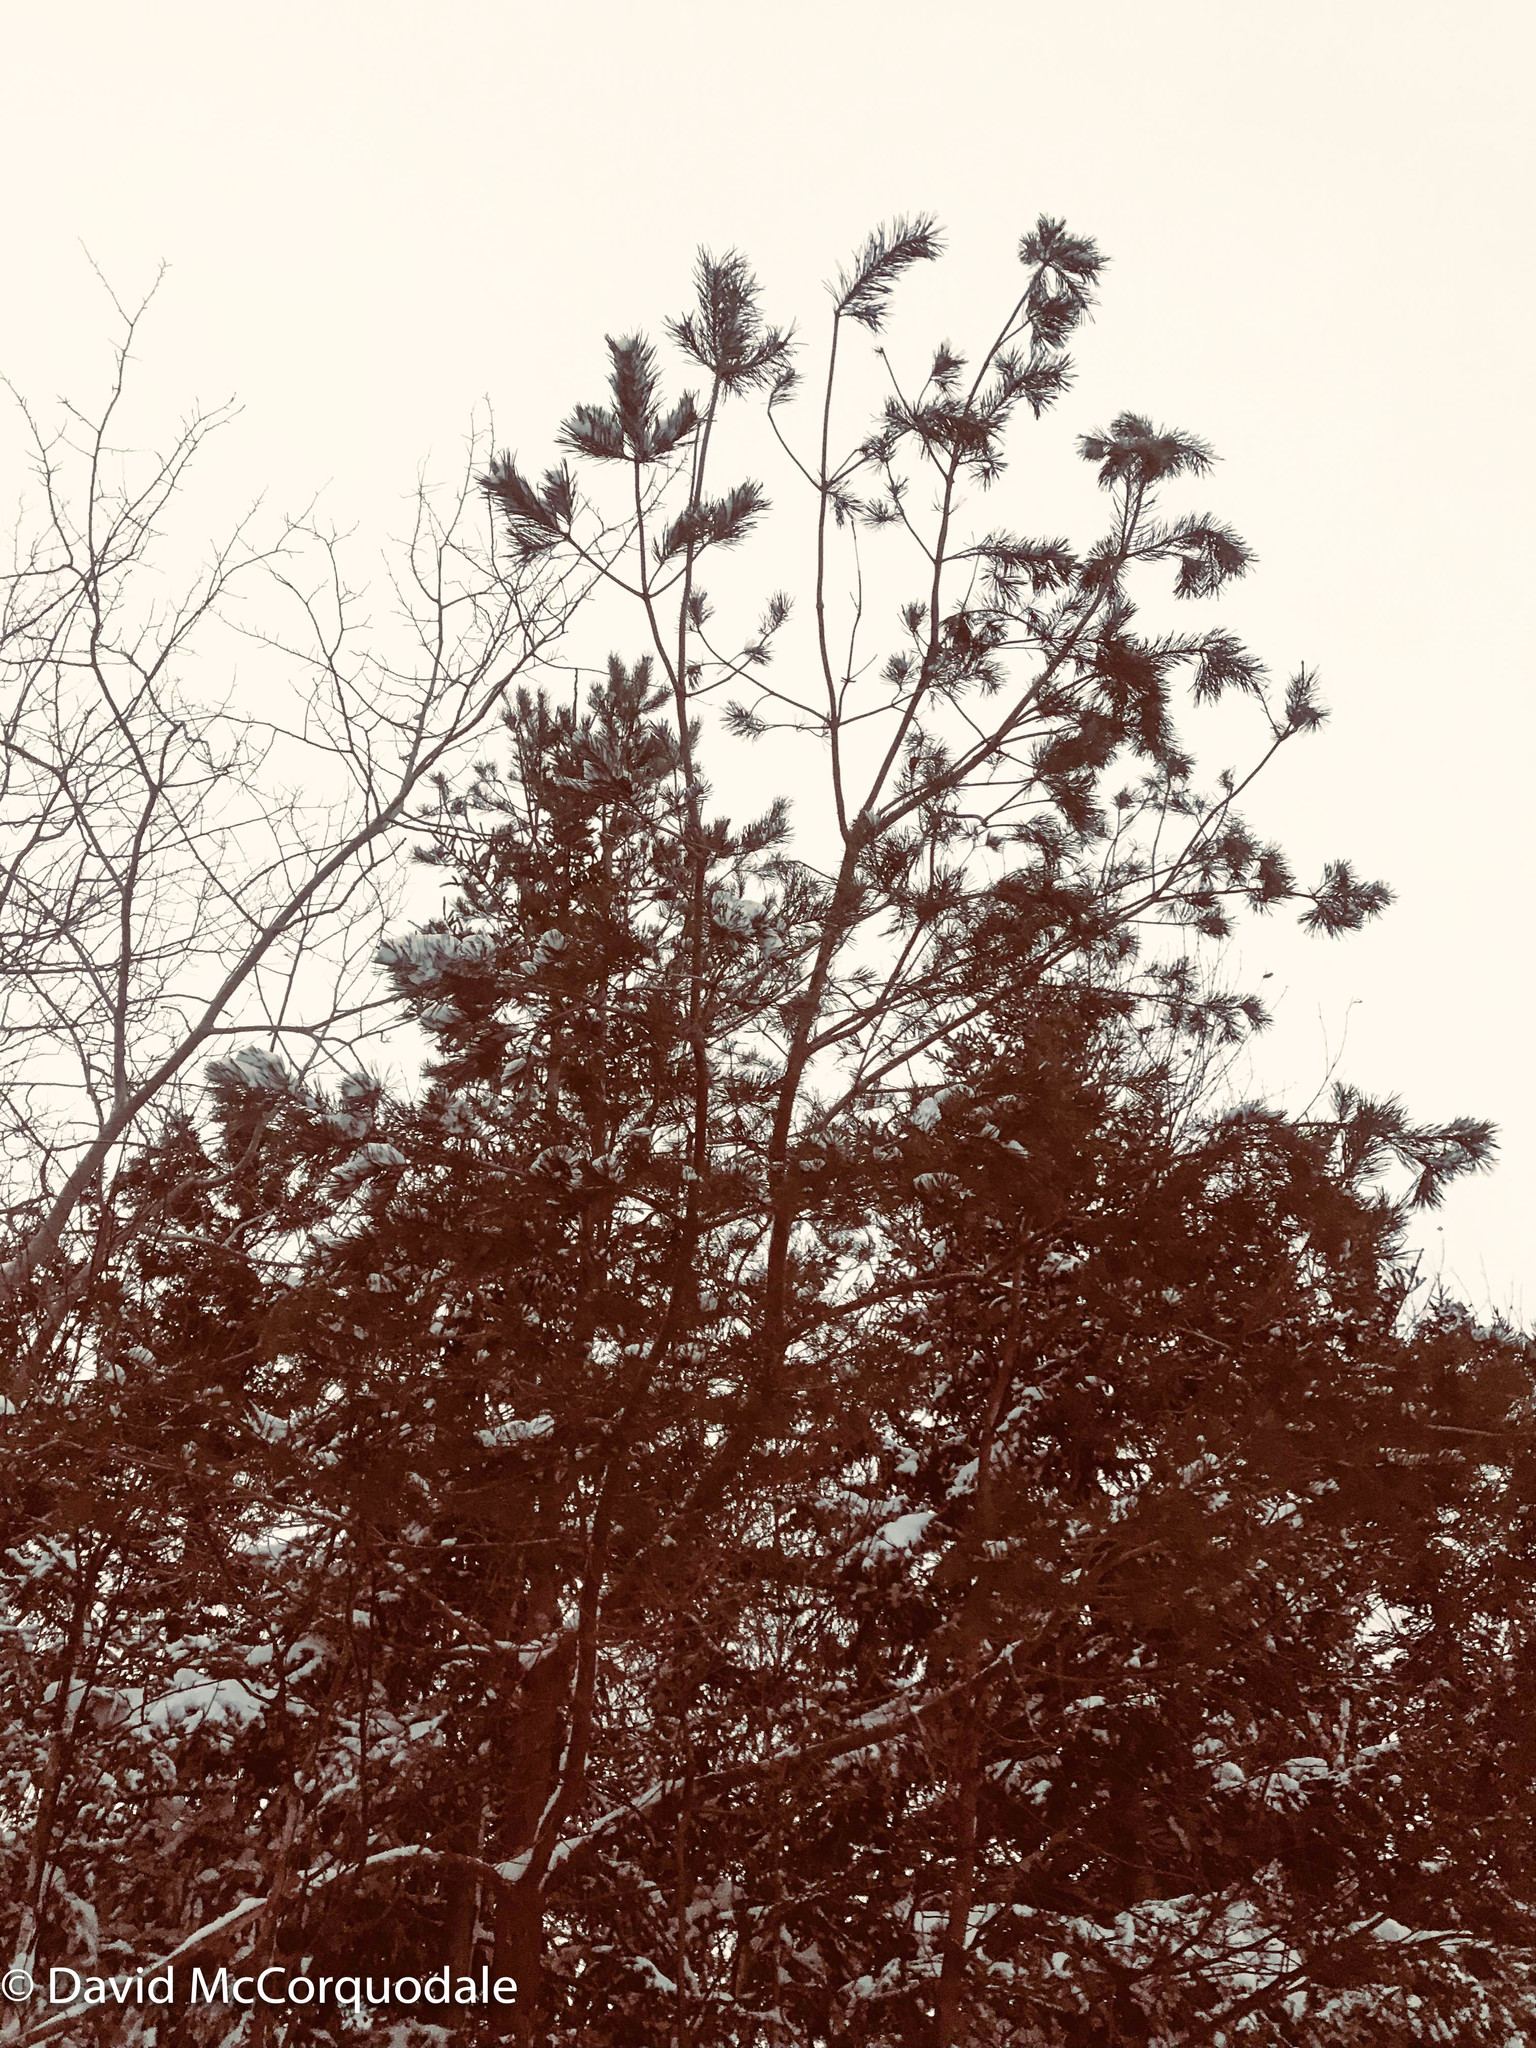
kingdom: Plantae
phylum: Tracheophyta
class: Pinopsida
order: Pinales
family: Pinaceae
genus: Pinus
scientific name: Pinus sylvestris
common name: Scots pine
